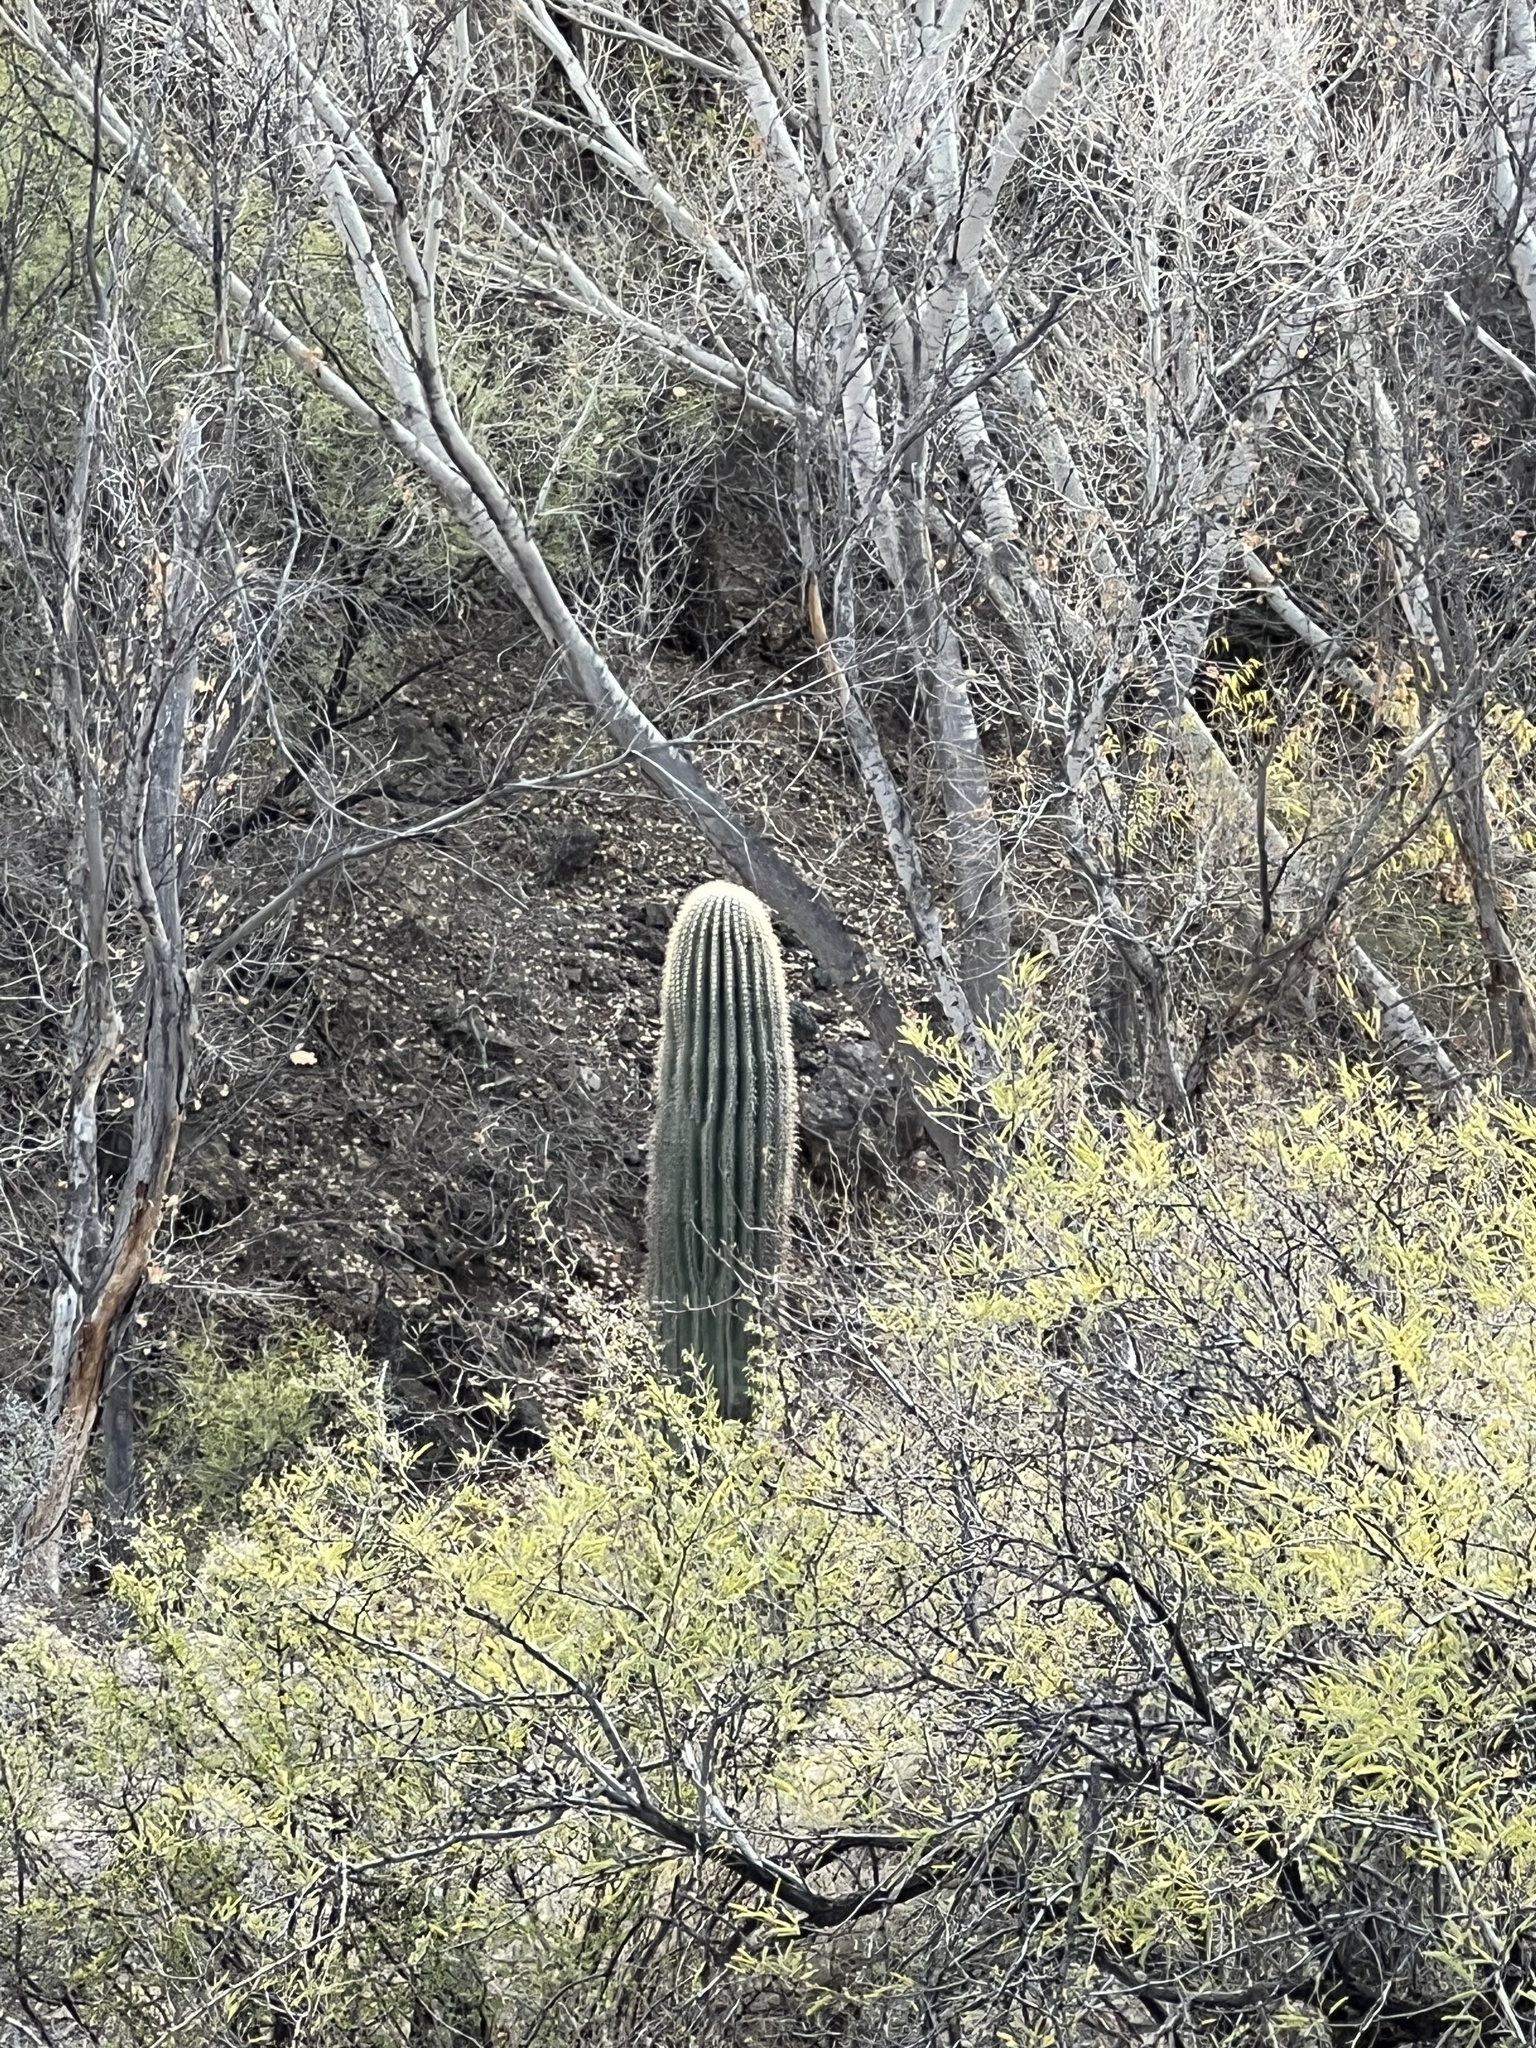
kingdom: Plantae
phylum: Tracheophyta
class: Magnoliopsida
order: Caryophyllales
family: Cactaceae
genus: Carnegiea
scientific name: Carnegiea gigantea
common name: Saguaro
